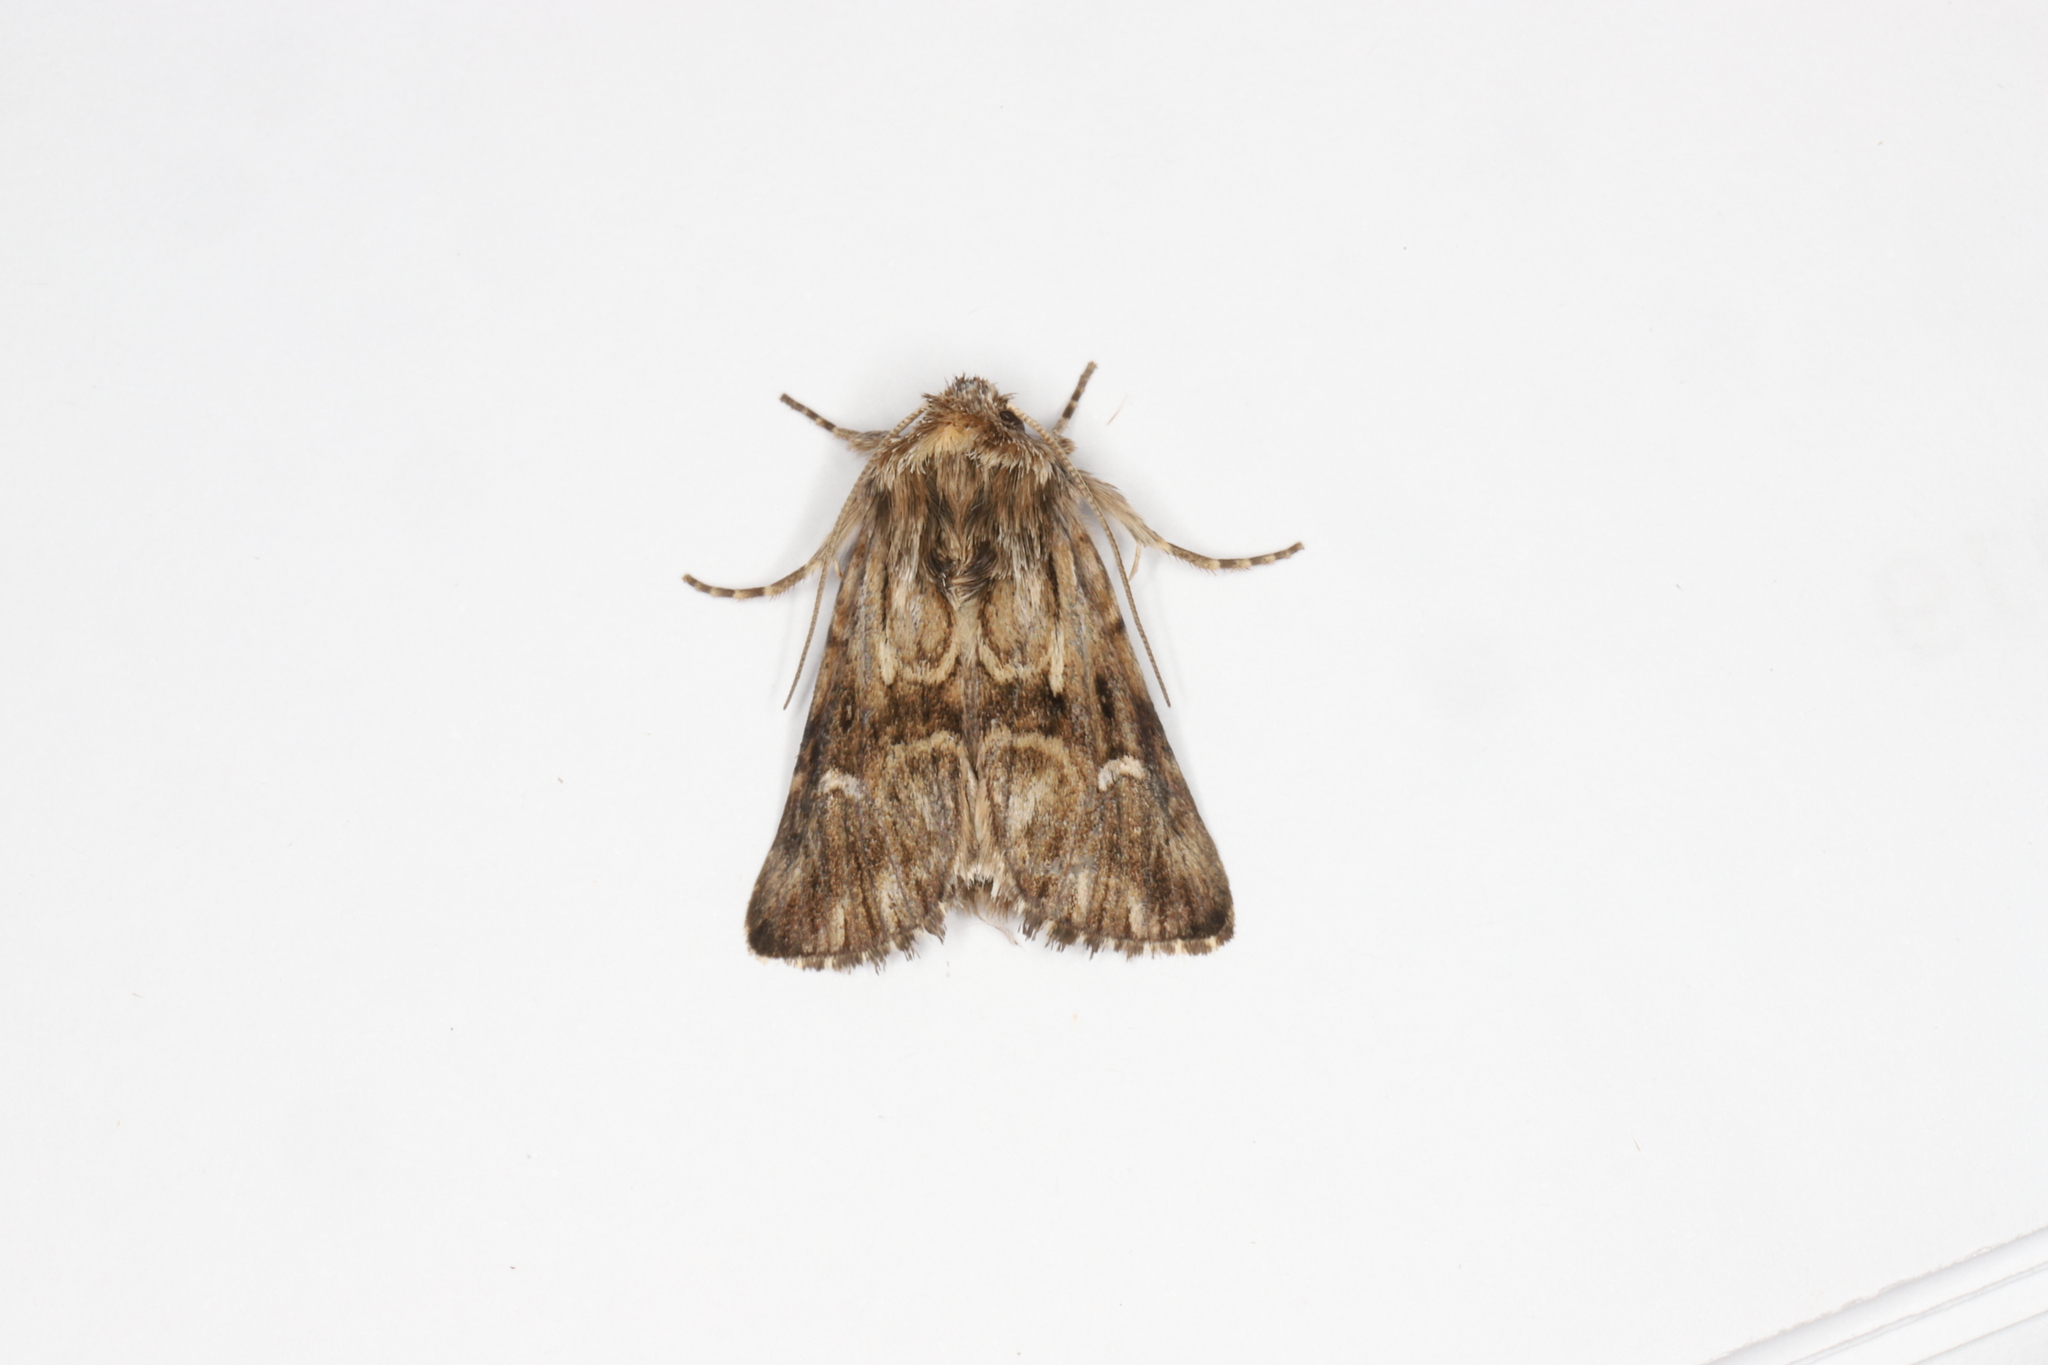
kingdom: Animalia
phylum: Arthropoda
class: Insecta
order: Lepidoptera
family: Noctuidae
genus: Calophasia
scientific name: Calophasia lunula
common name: Toadflax brocade
